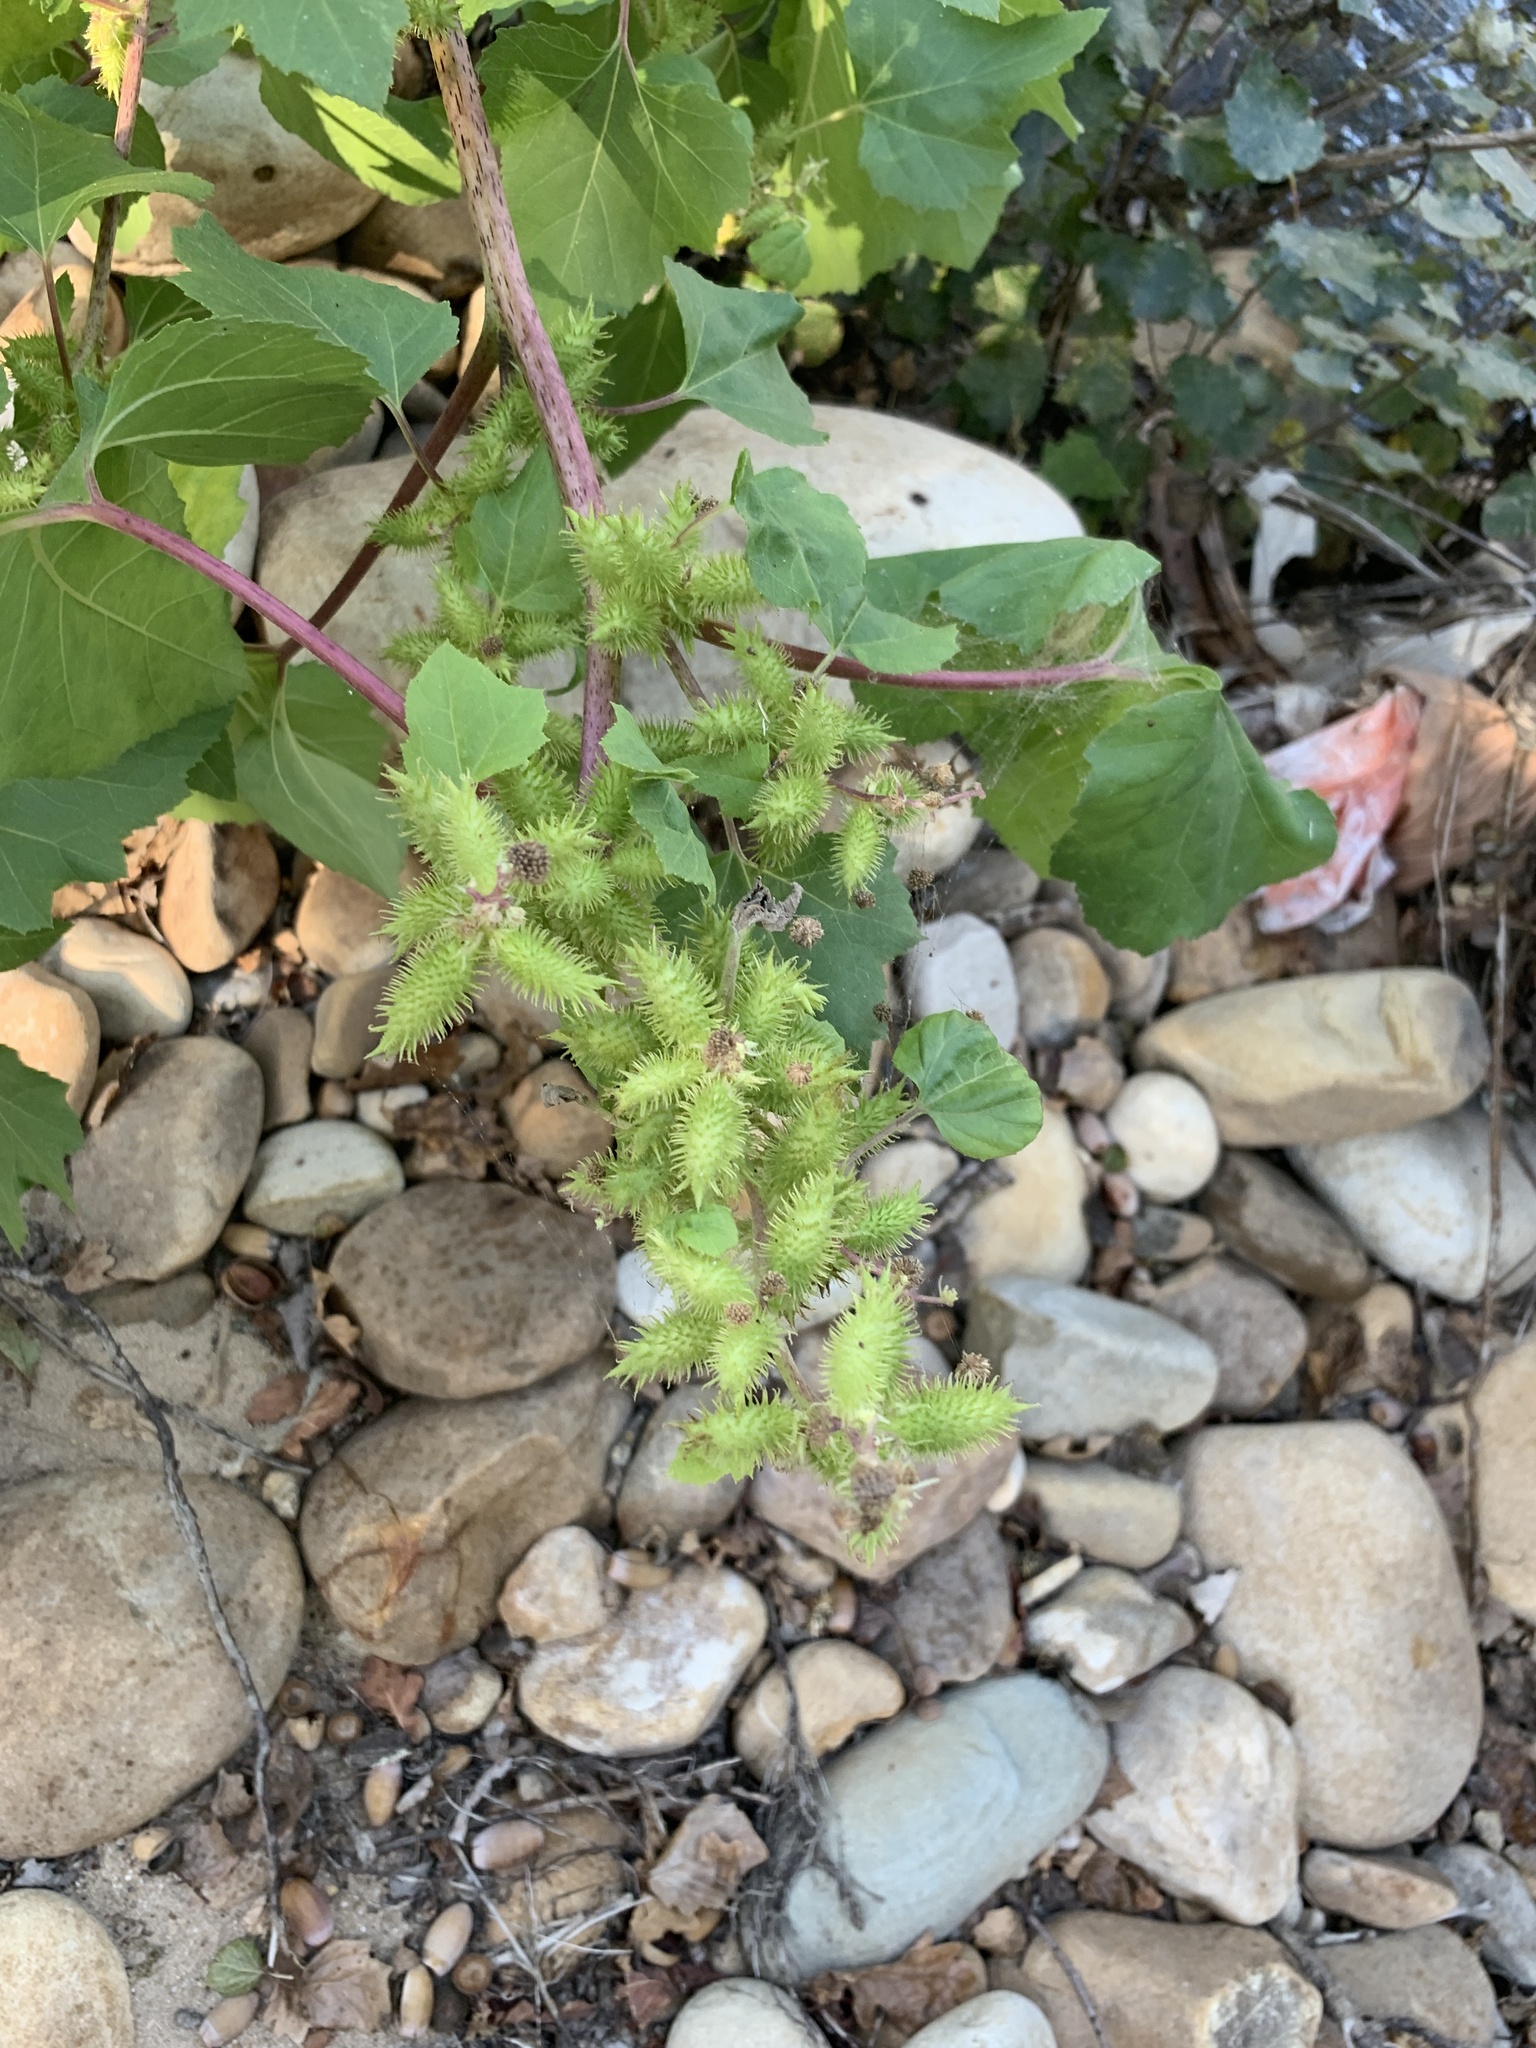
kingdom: Plantae
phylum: Tracheophyta
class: Magnoliopsida
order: Asterales
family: Asteraceae
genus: Xanthium
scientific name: Xanthium strumarium
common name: Rough cocklebur
